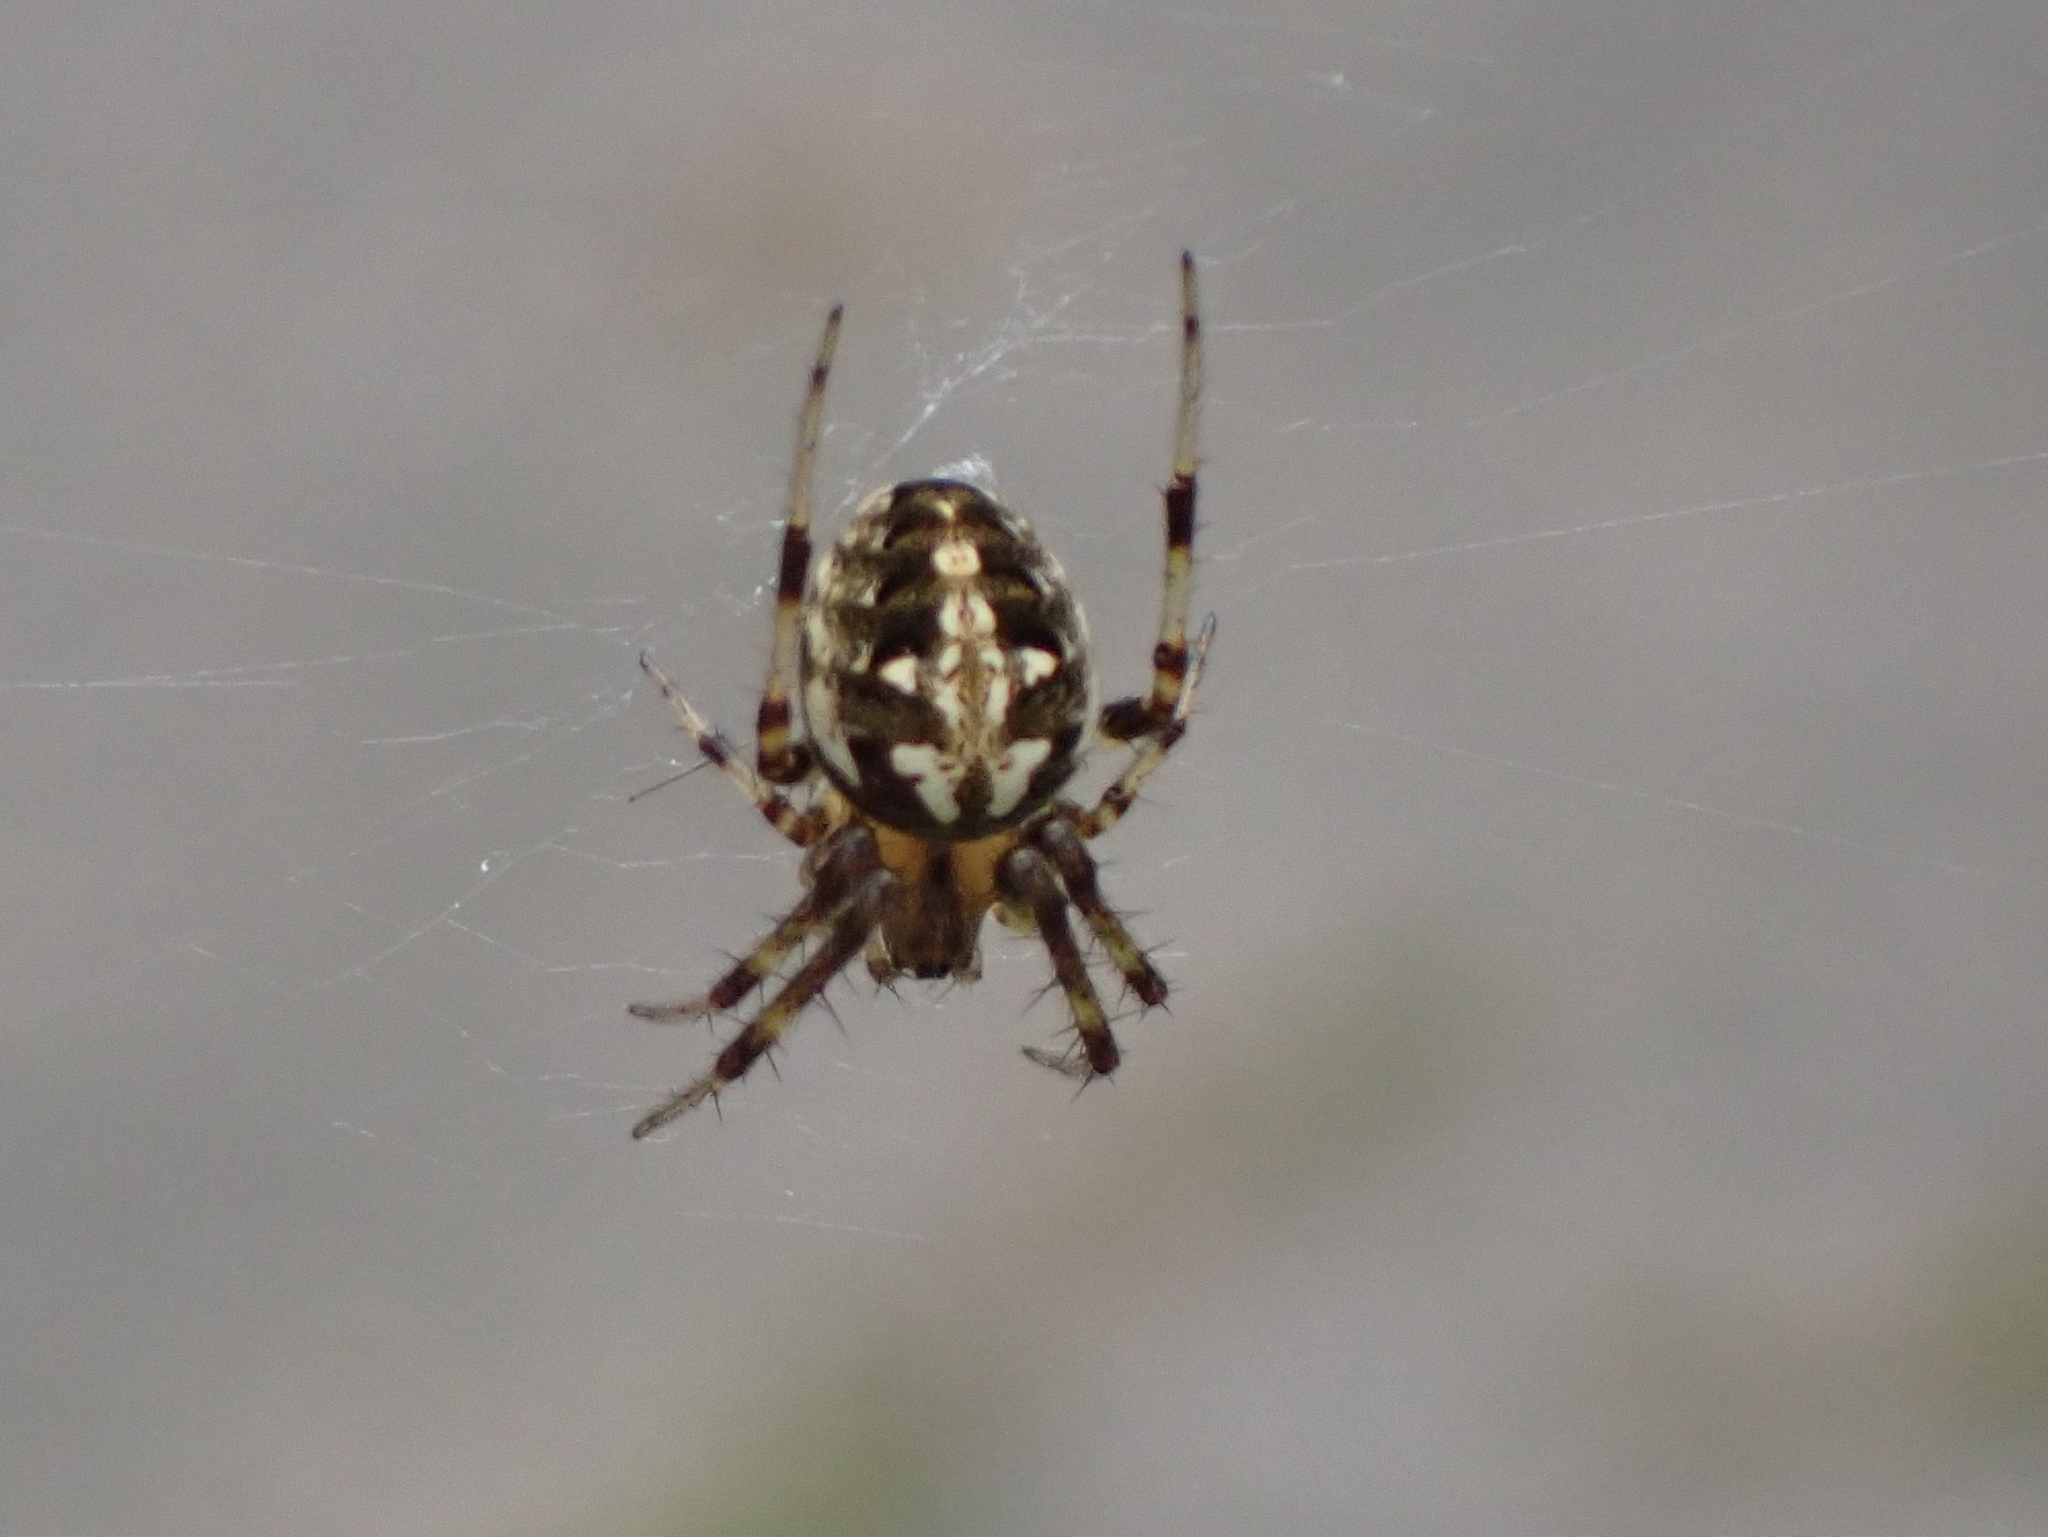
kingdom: Animalia
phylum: Arthropoda
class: Arachnida
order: Araneae
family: Araneidae
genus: Neoscona
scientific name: Neoscona arabesca
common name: Orb weavers
